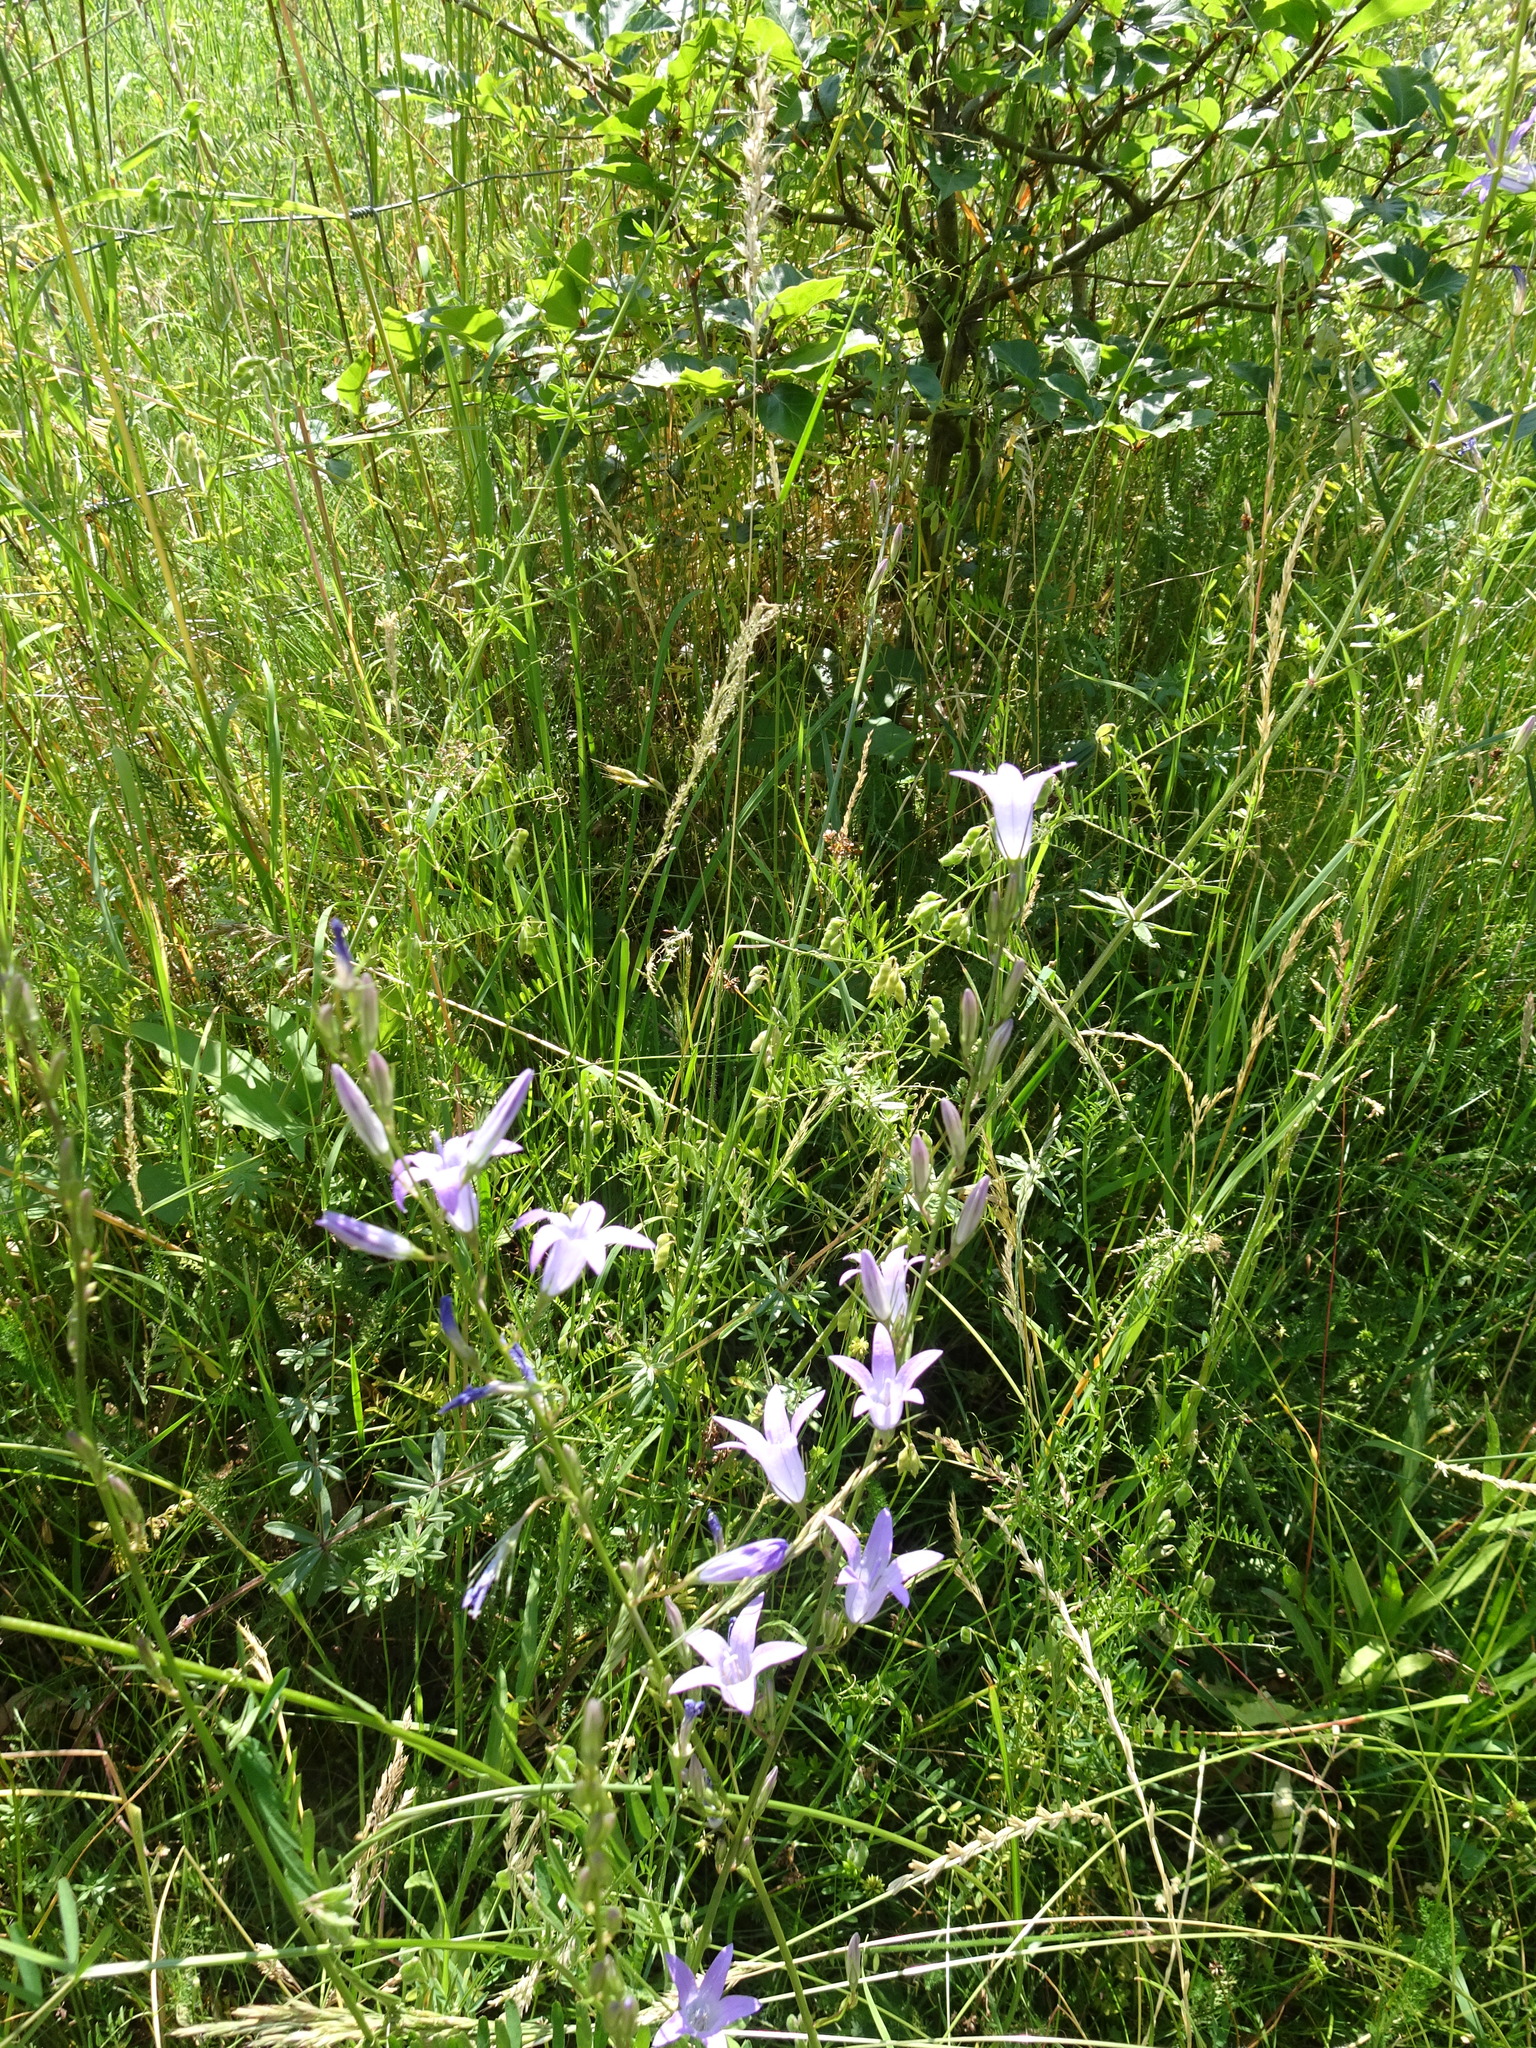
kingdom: Plantae
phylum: Tracheophyta
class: Magnoliopsida
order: Asterales
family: Campanulaceae
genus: Campanula
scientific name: Campanula rapunculus
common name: Rampion bellflower
